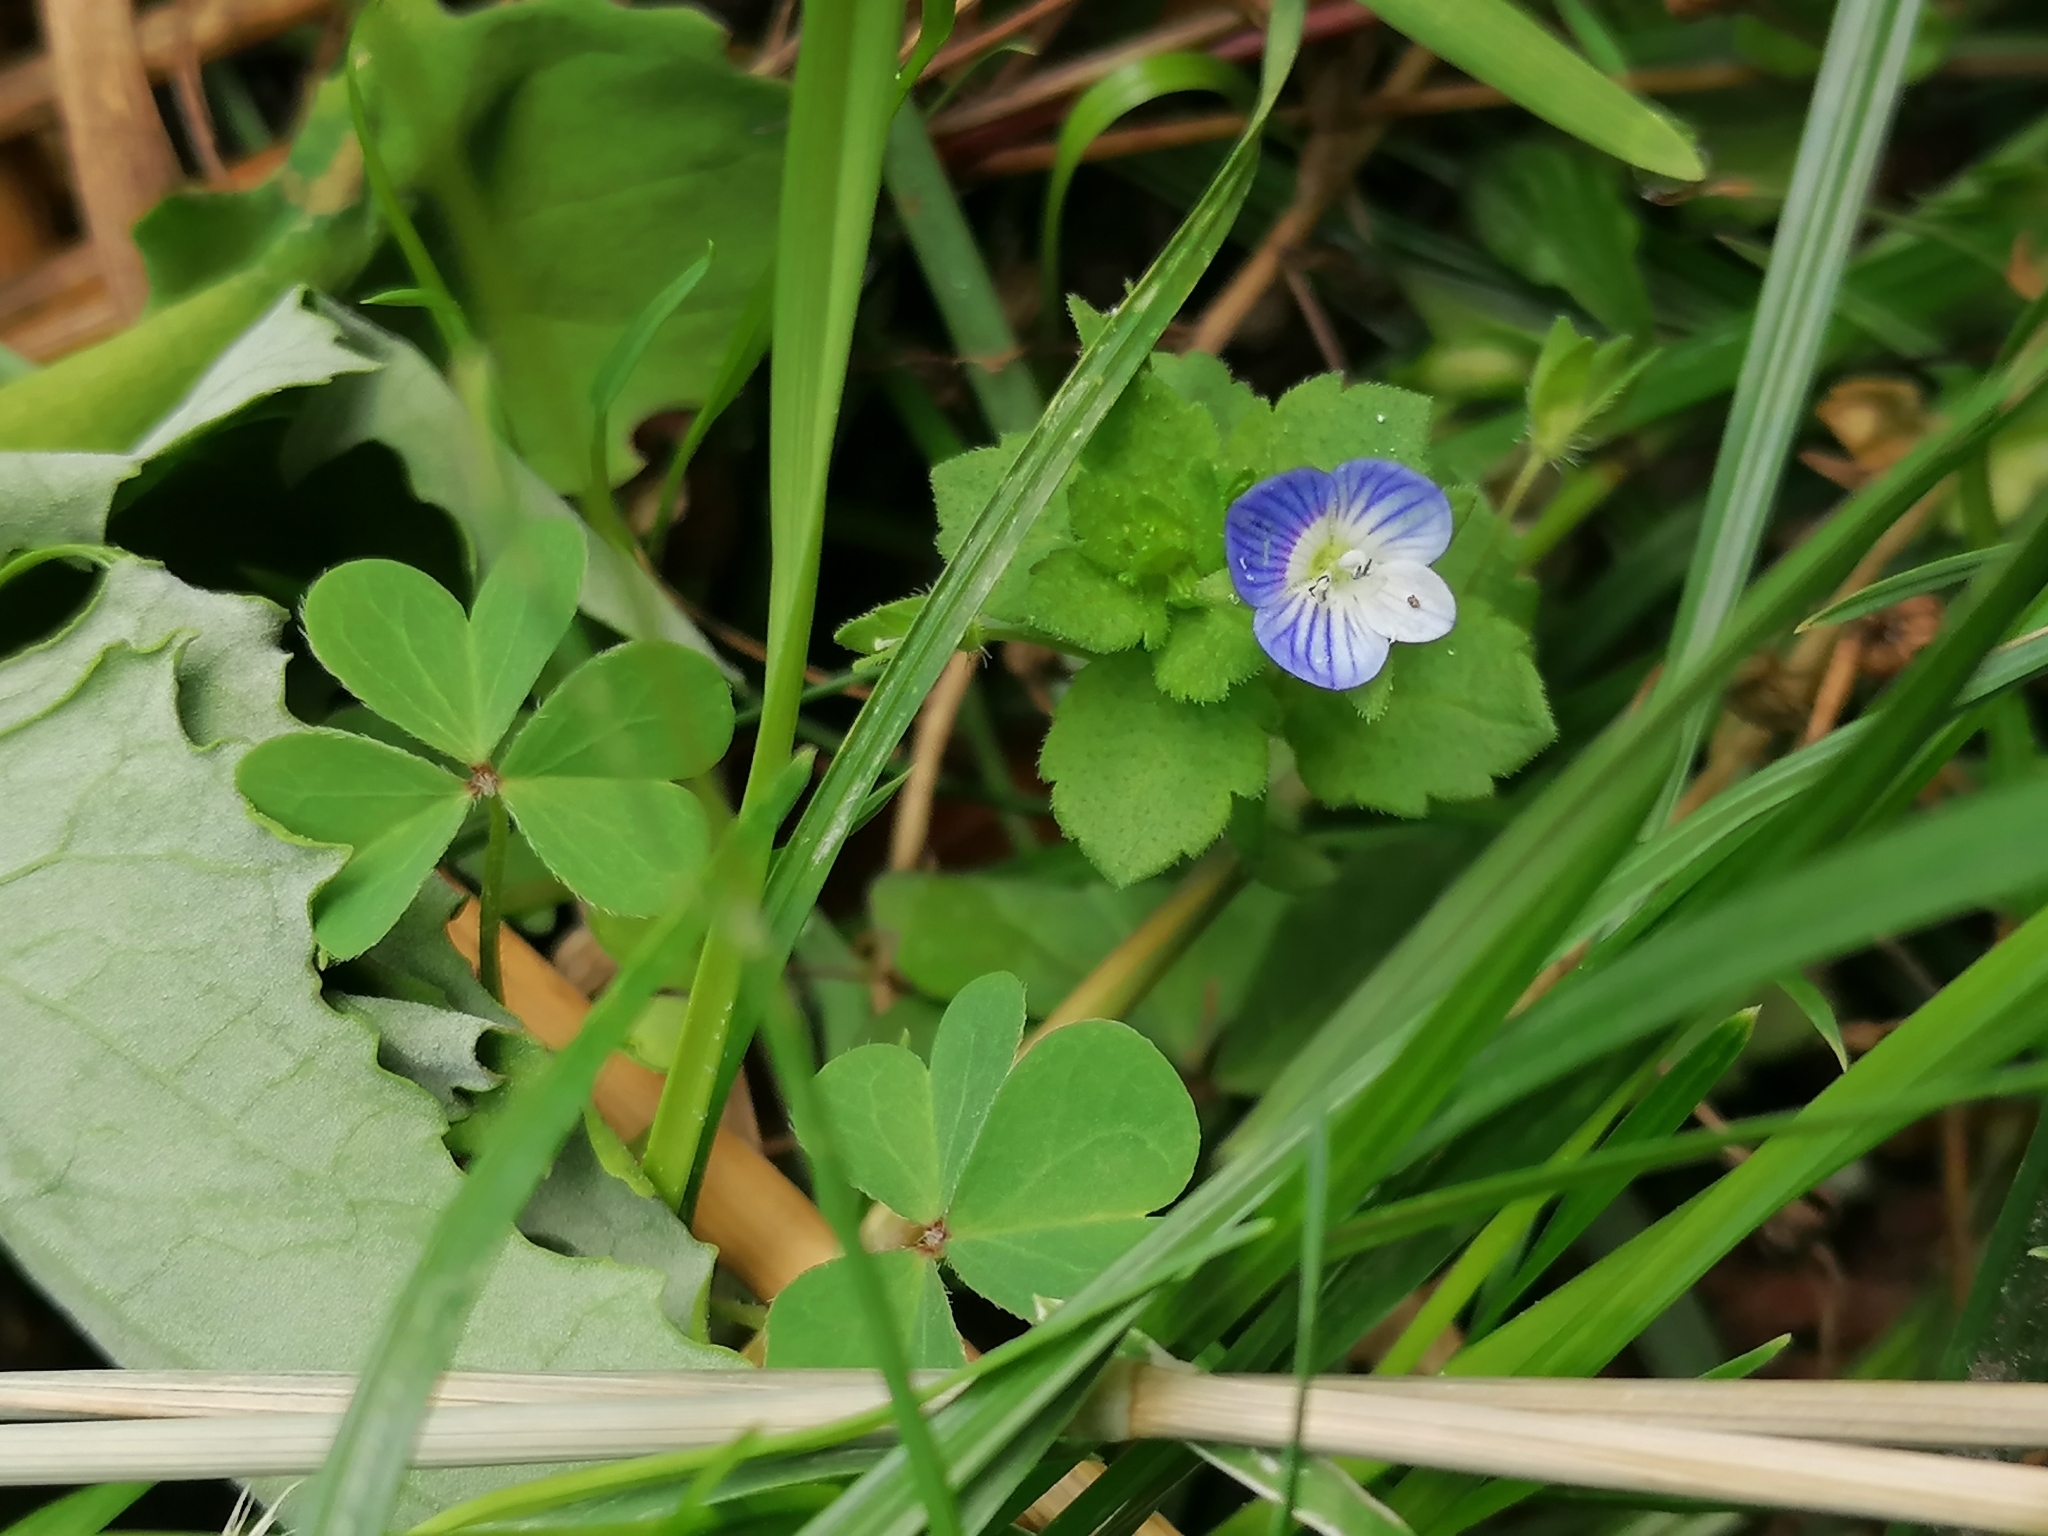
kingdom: Plantae
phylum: Tracheophyta
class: Magnoliopsida
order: Lamiales
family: Plantaginaceae
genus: Veronica
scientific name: Veronica persica
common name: Common field-speedwell
